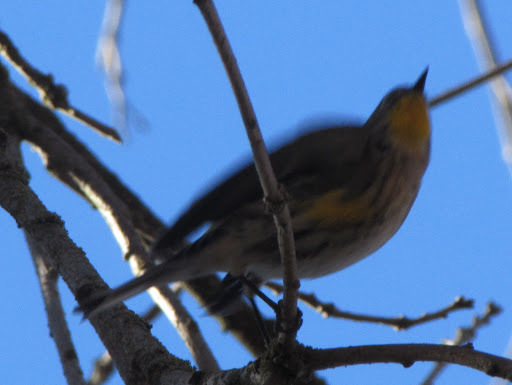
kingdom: Animalia
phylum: Chordata
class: Aves
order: Passeriformes
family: Parulidae
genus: Setophaga
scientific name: Setophaga coronata
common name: Myrtle warbler
